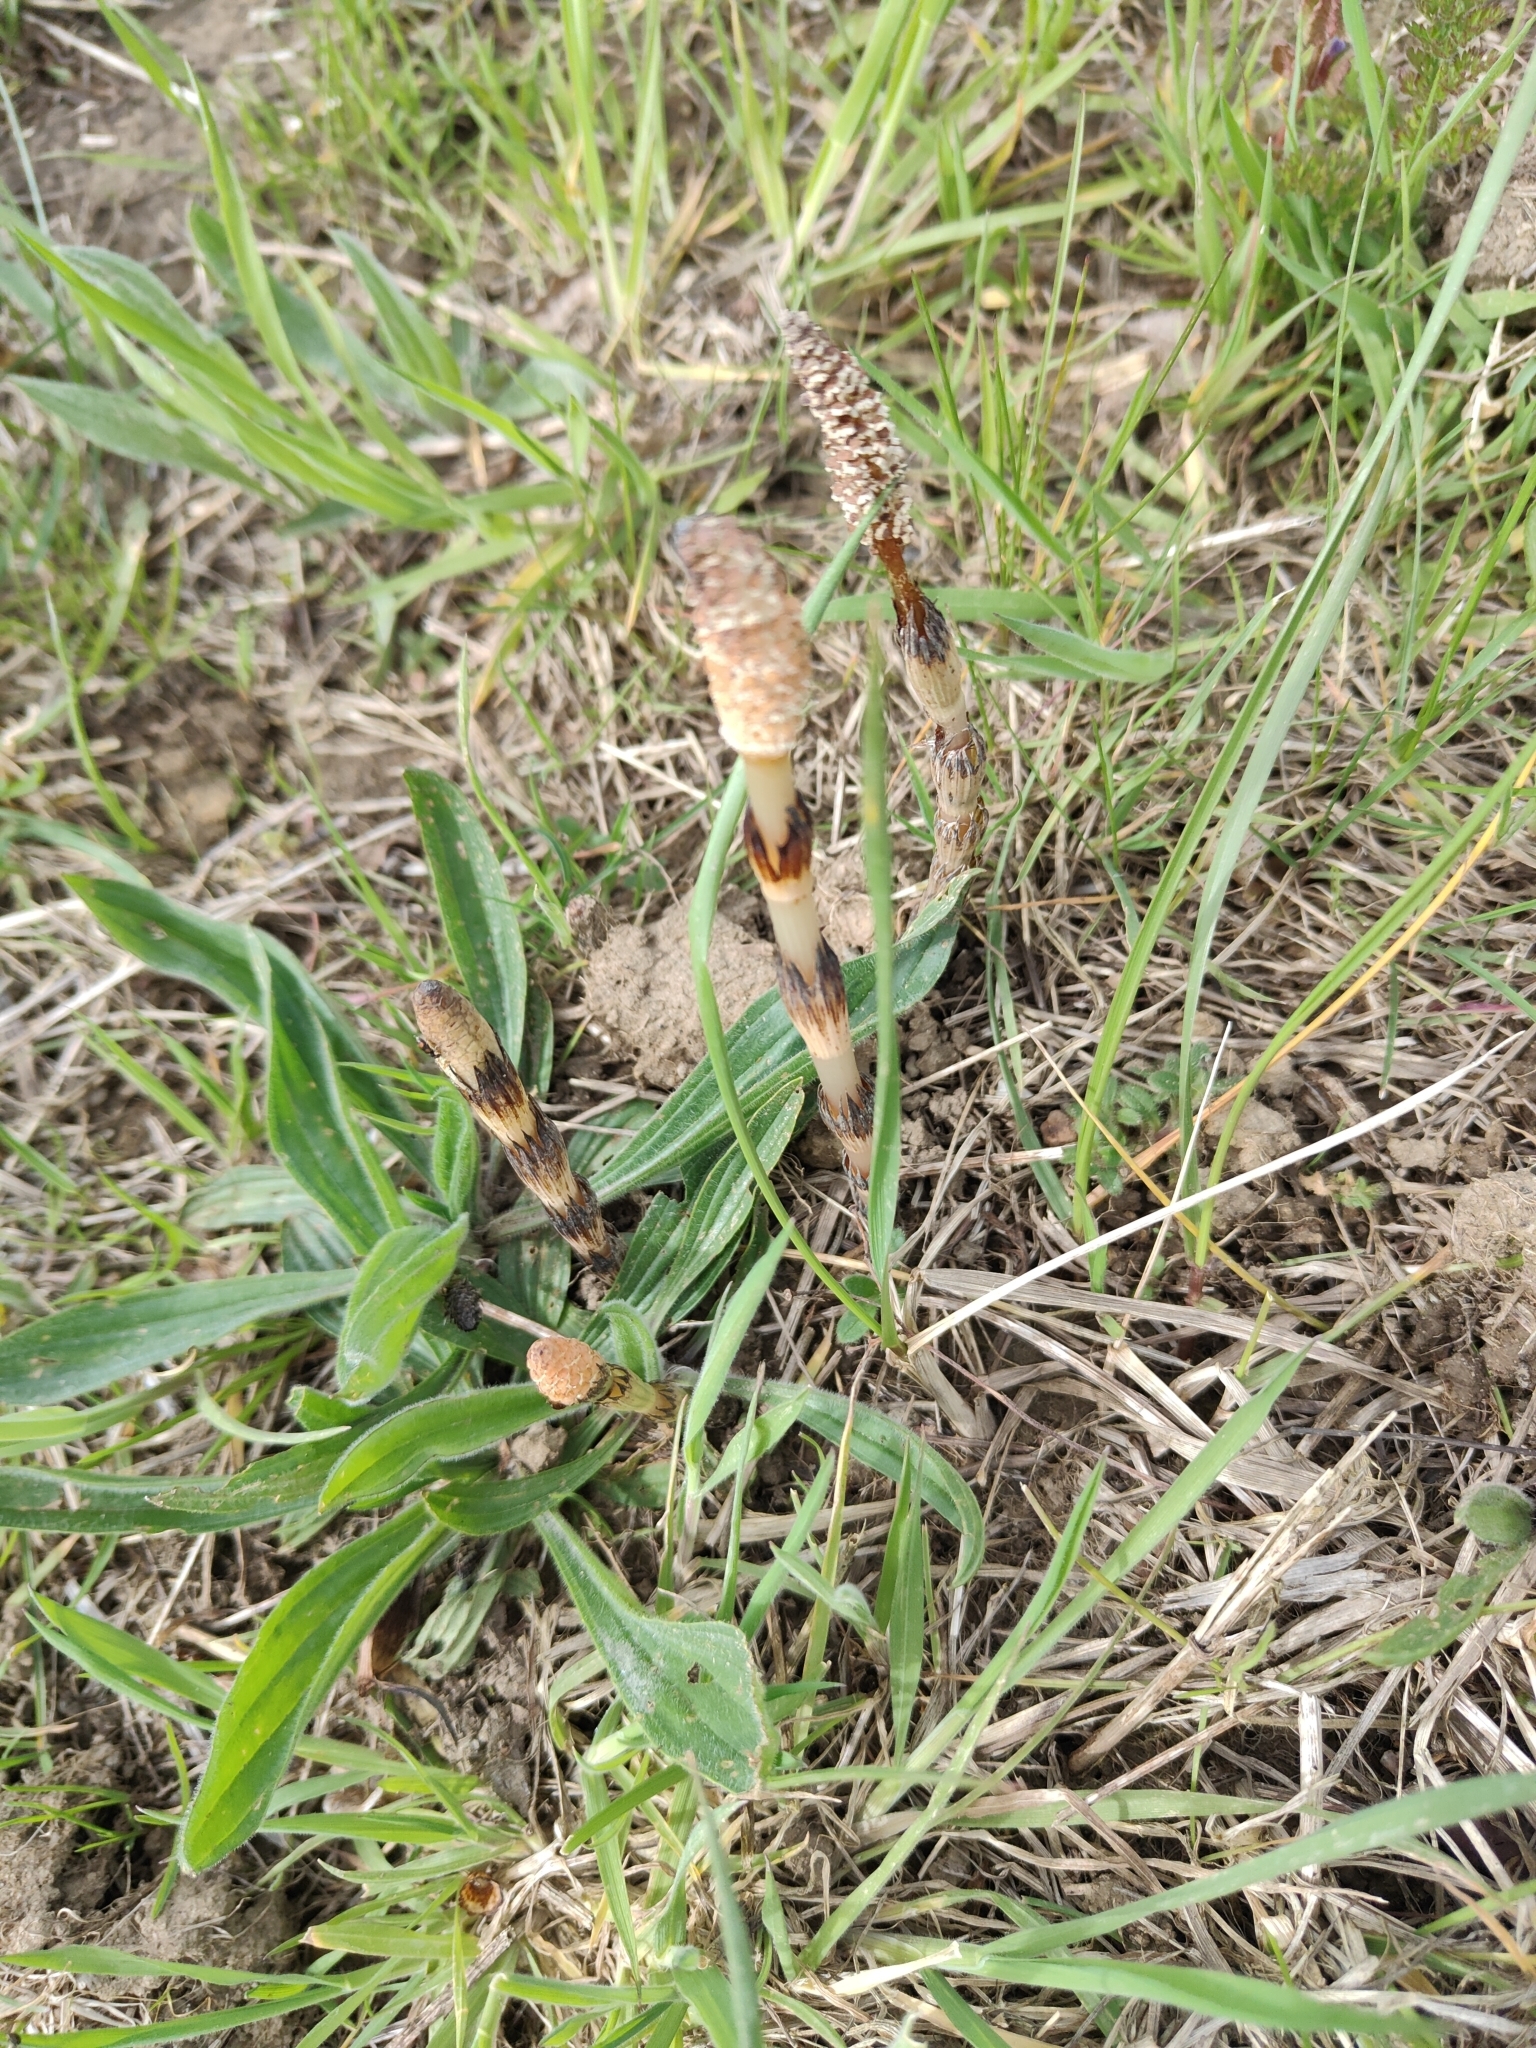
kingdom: Plantae
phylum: Tracheophyta
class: Polypodiopsida
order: Equisetales
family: Equisetaceae
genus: Equisetum
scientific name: Equisetum arvense
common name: Field horsetail
